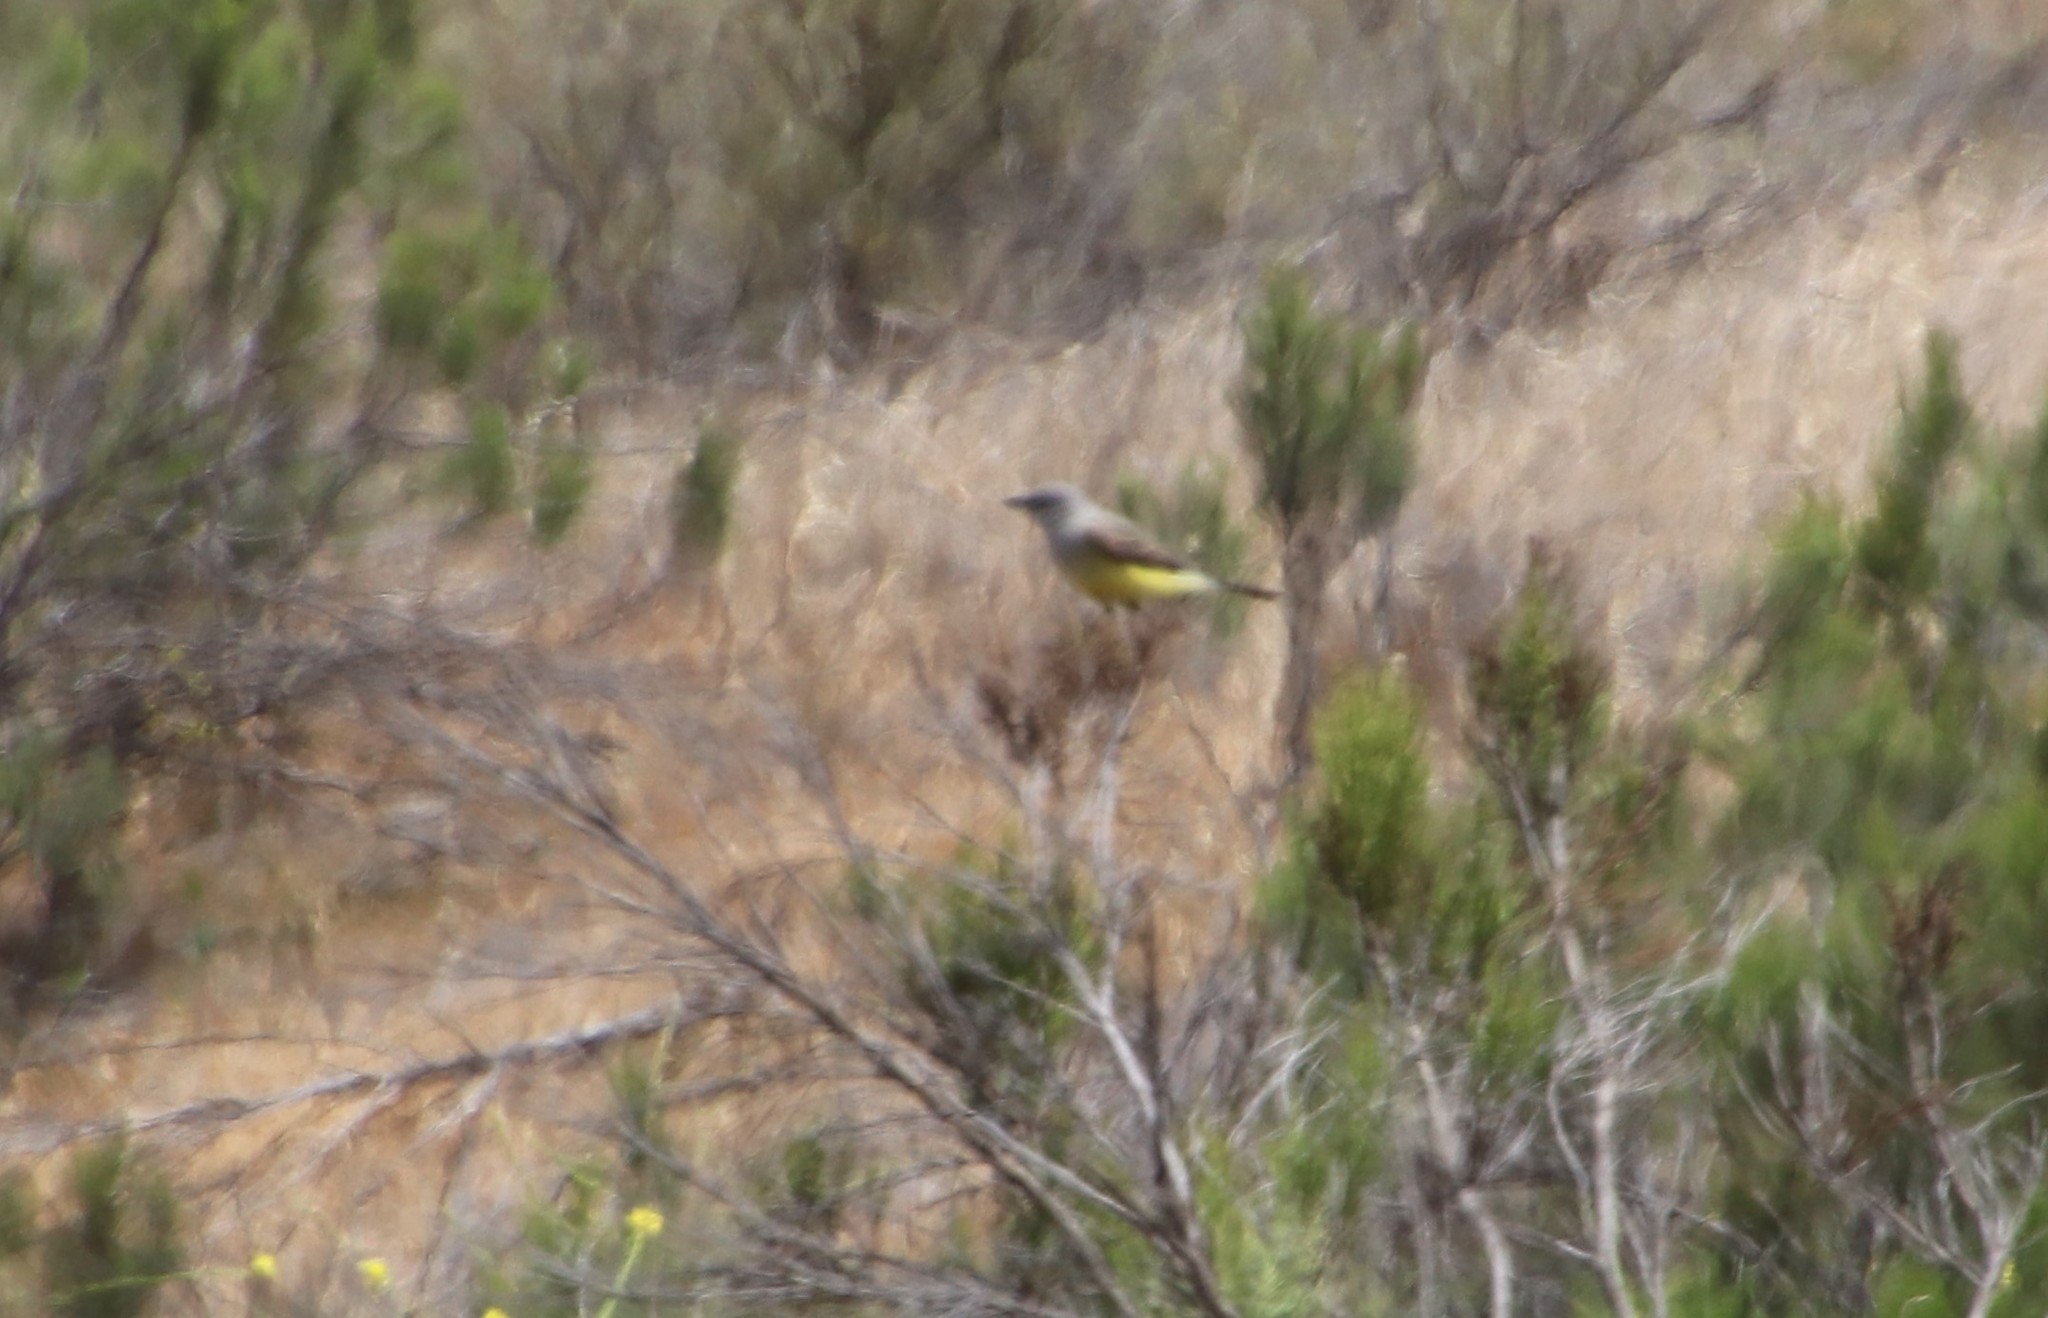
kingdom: Animalia
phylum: Chordata
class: Aves
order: Passeriformes
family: Tyrannidae
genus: Tyrannus
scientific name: Tyrannus verticalis
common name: Western kingbird
